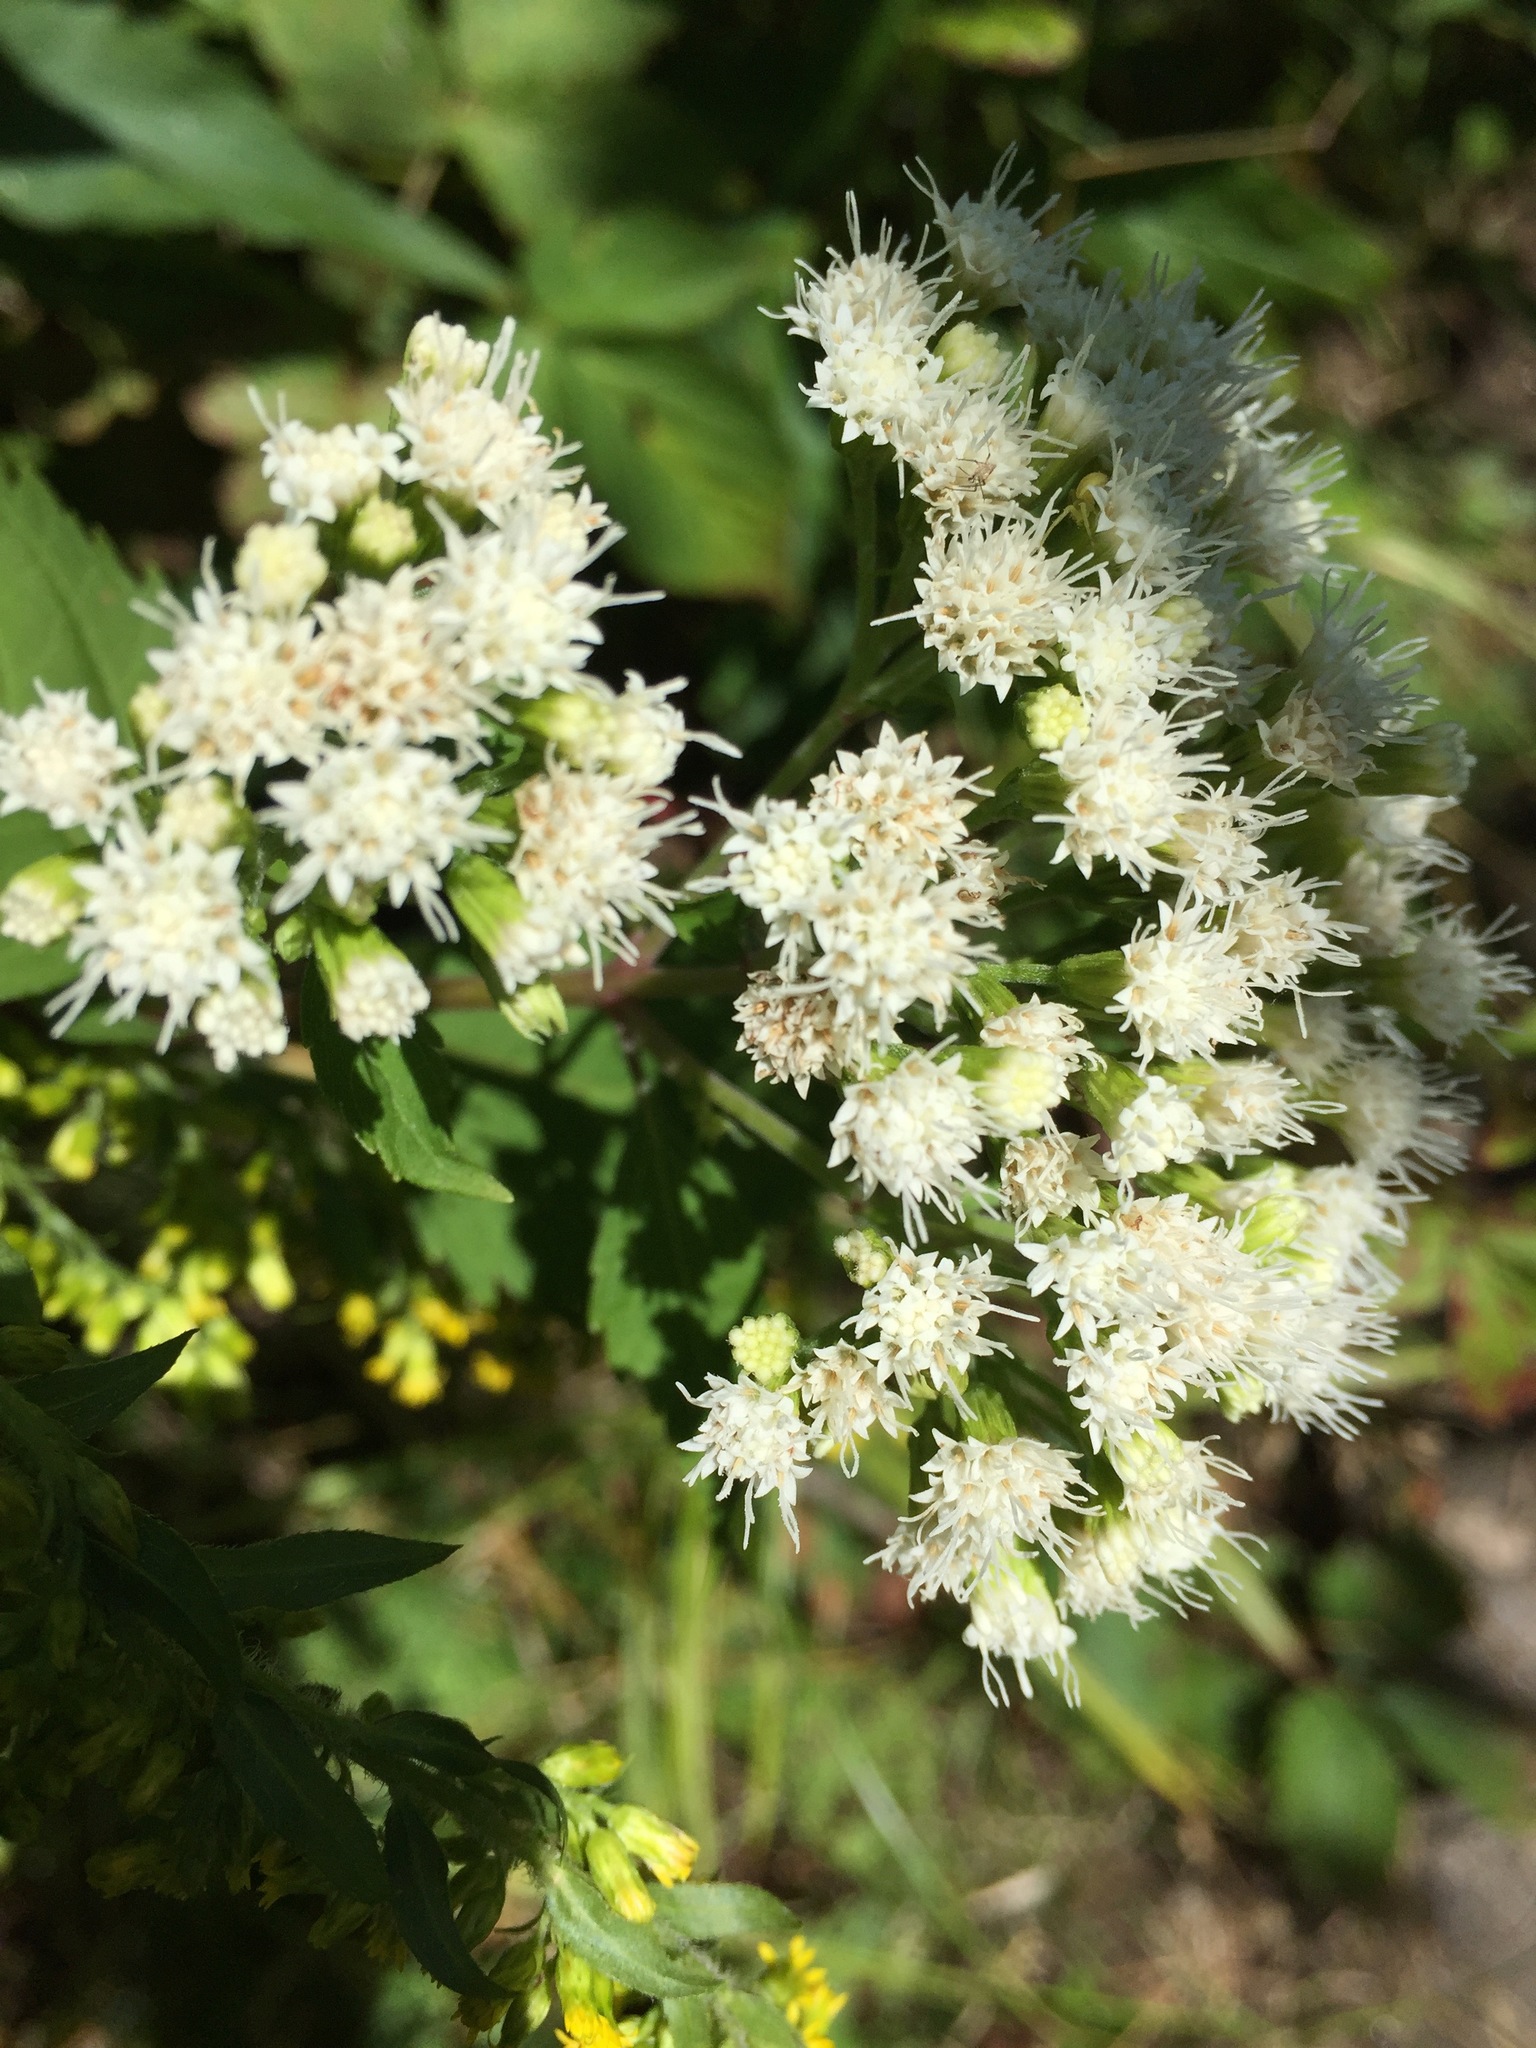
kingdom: Plantae
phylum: Tracheophyta
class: Magnoliopsida
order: Asterales
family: Asteraceae
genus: Ageratina
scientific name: Ageratina altissima
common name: White snakeroot
